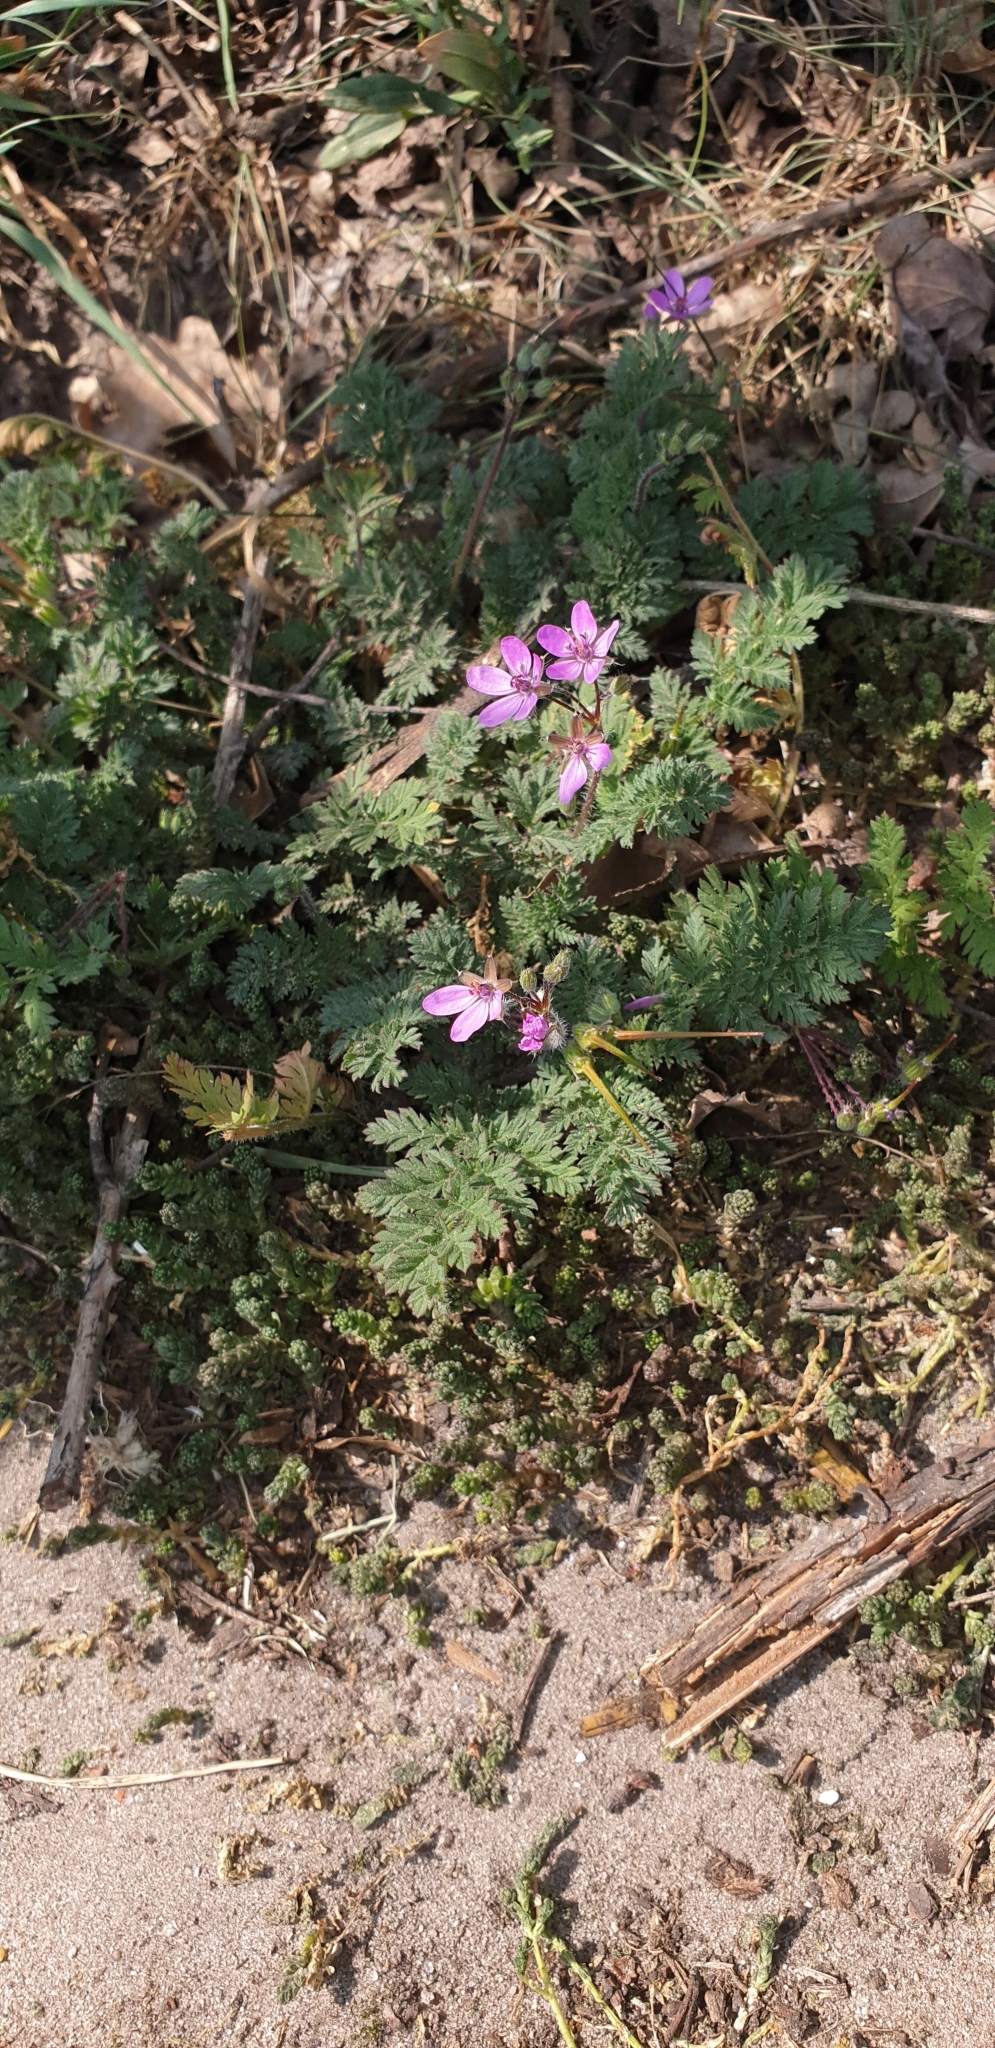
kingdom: Plantae
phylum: Tracheophyta
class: Magnoliopsida
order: Geraniales
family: Geraniaceae
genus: Erodium
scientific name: Erodium cicutarium
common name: Common stork's-bill
